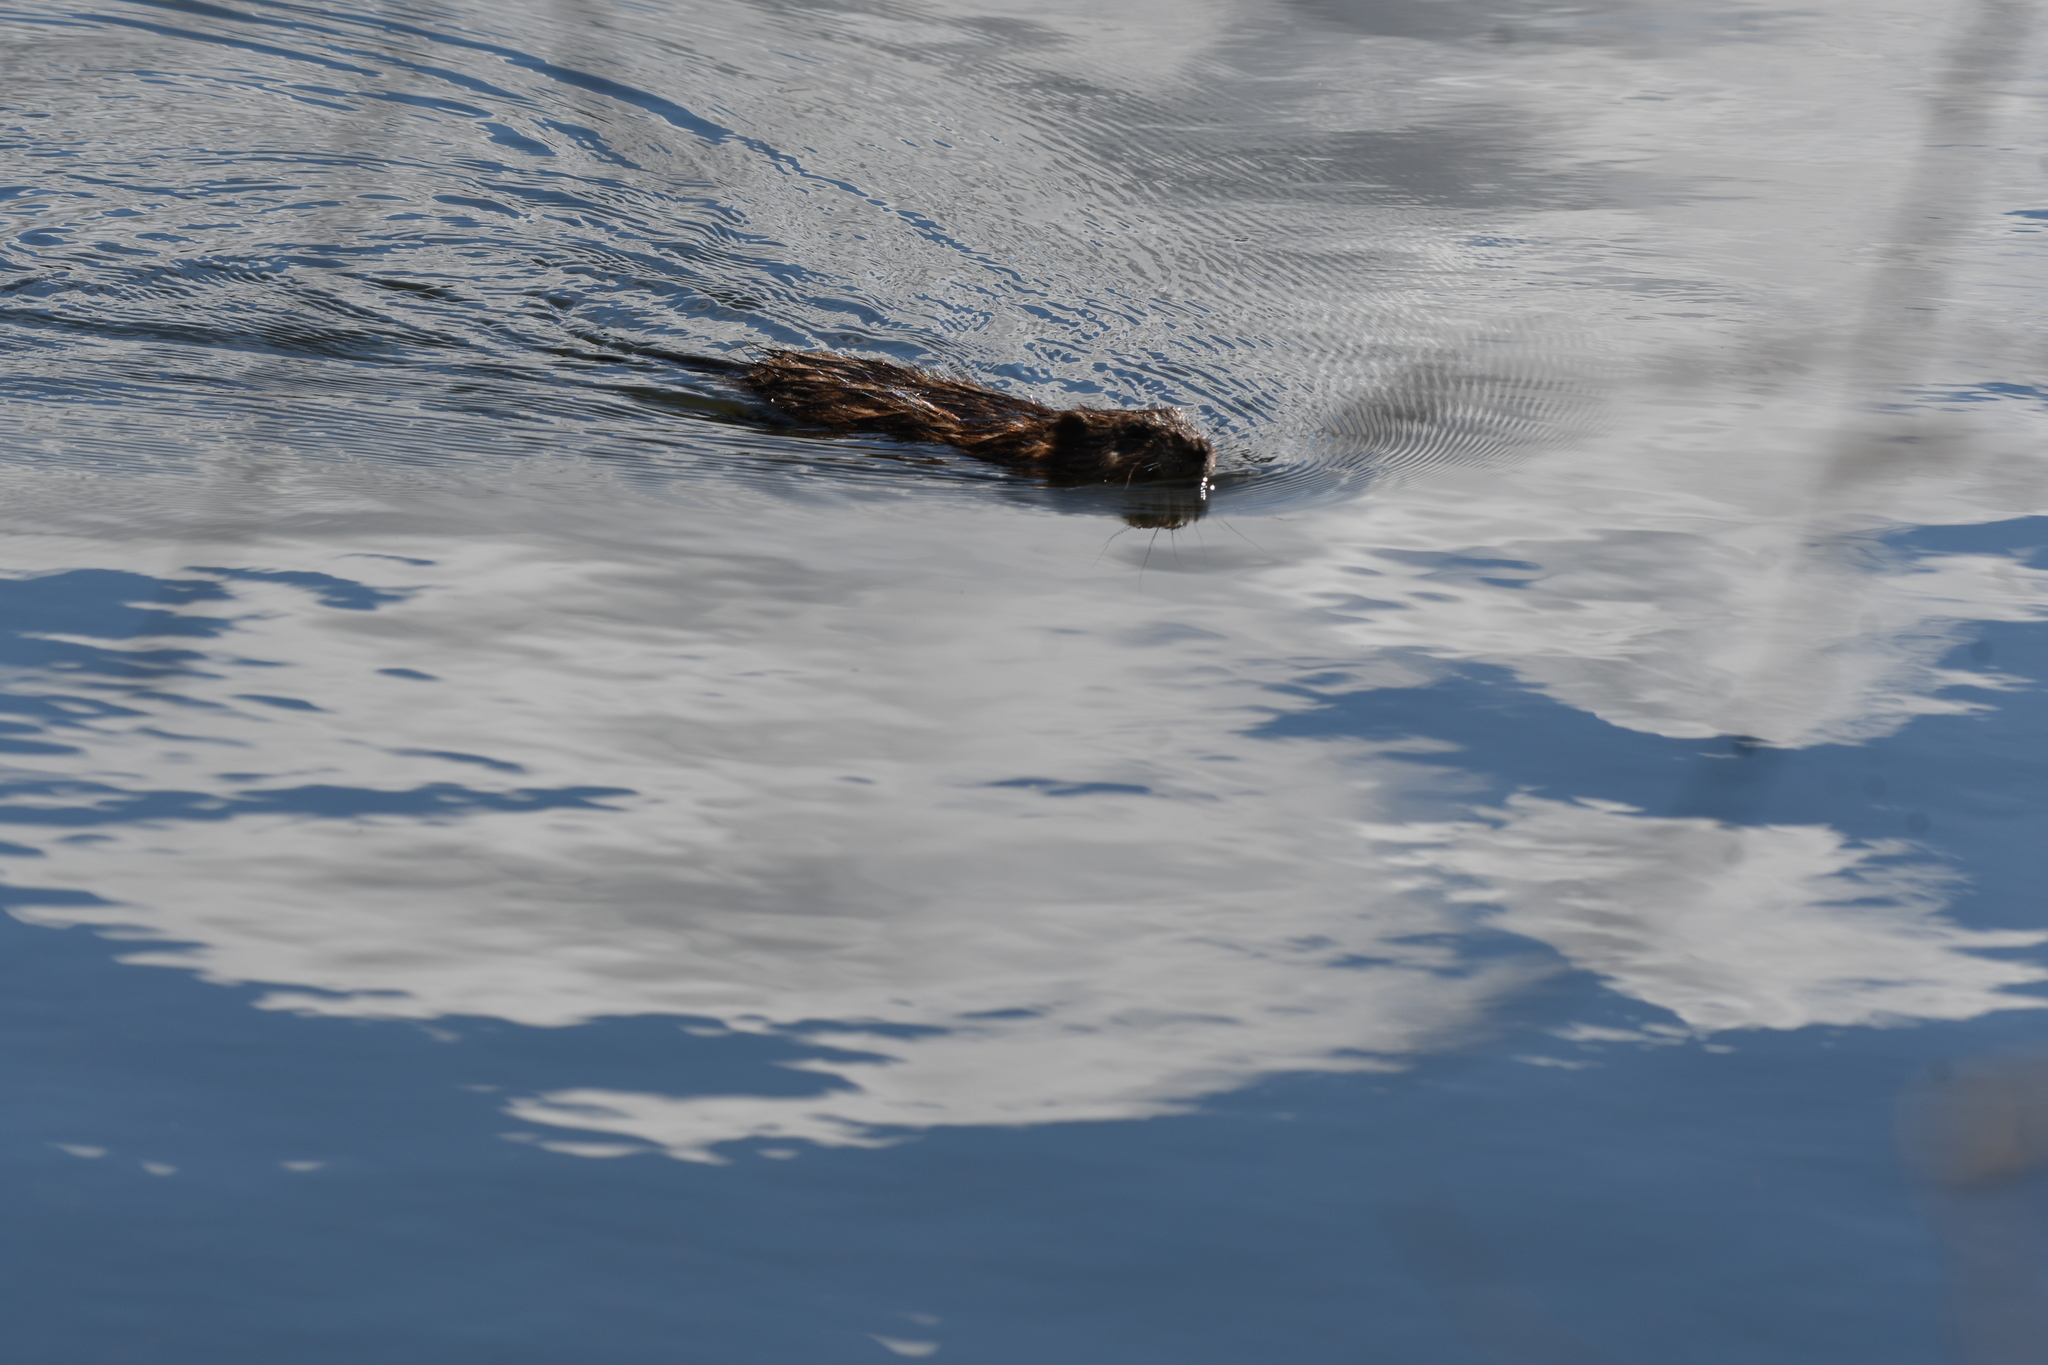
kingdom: Animalia
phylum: Chordata
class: Mammalia
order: Rodentia
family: Cricetidae
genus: Ondatra
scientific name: Ondatra zibethicus
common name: Muskrat
